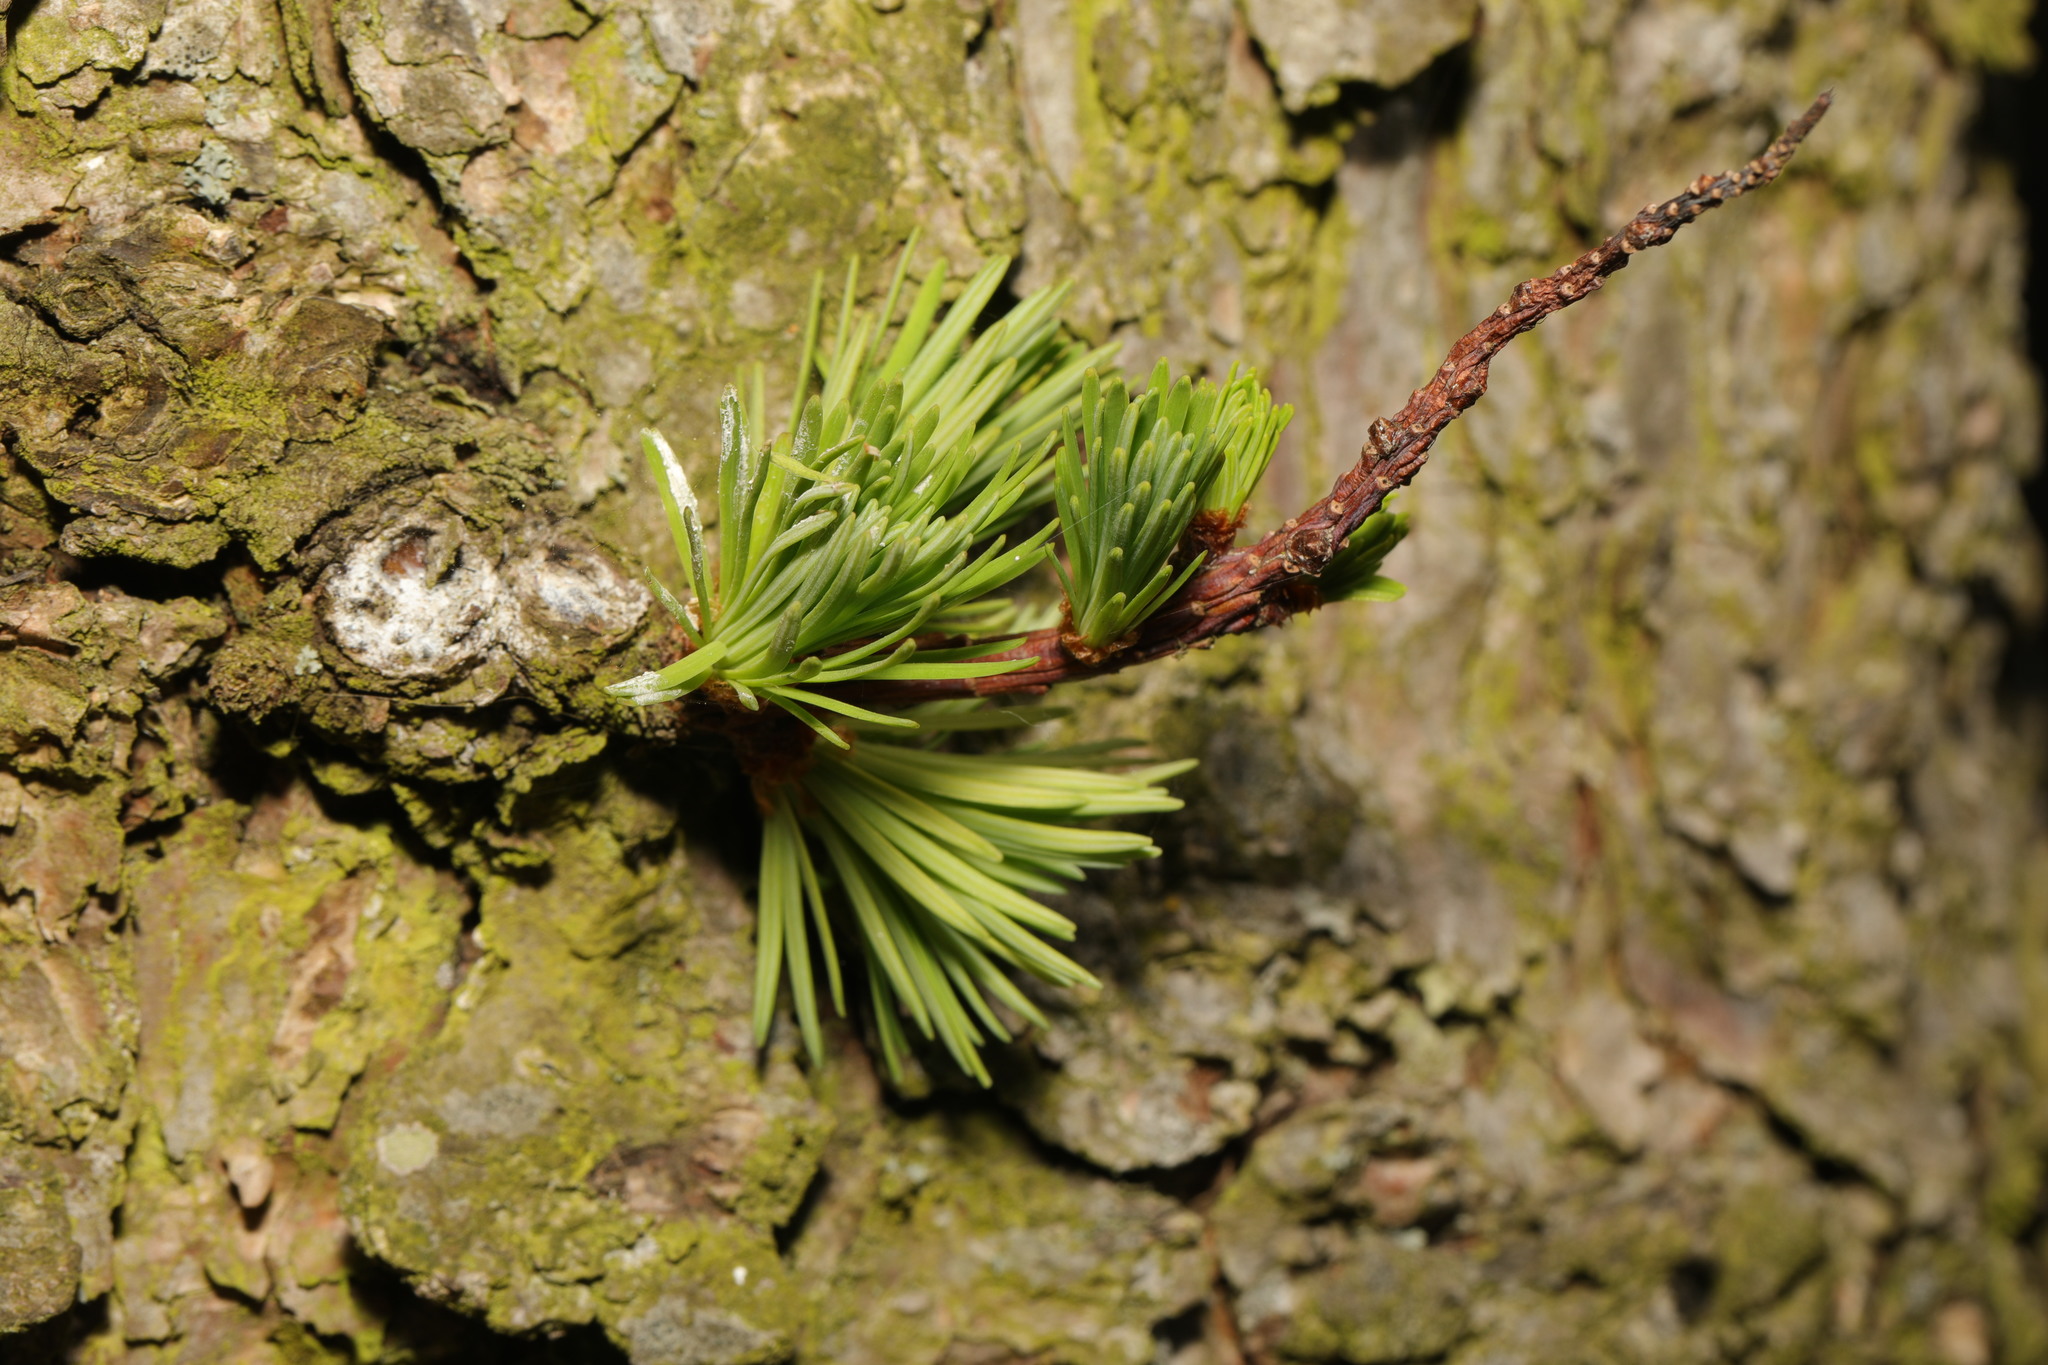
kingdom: Plantae
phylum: Tracheophyta
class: Pinopsida
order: Pinales
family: Pinaceae
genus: Larix
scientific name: Larix decidua
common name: European larch
